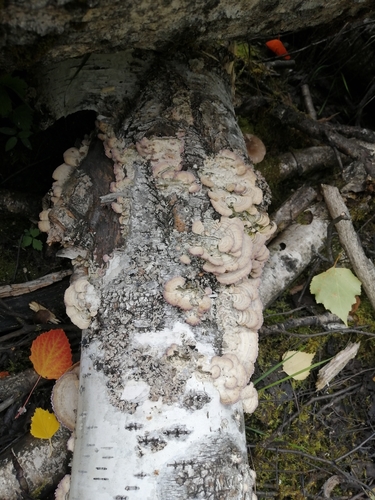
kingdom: Fungi
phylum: Basidiomycota
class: Agaricomycetes
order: Hymenochaetales
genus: Trichaptum
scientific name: Trichaptum biforme
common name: Violet-toothed polypore
